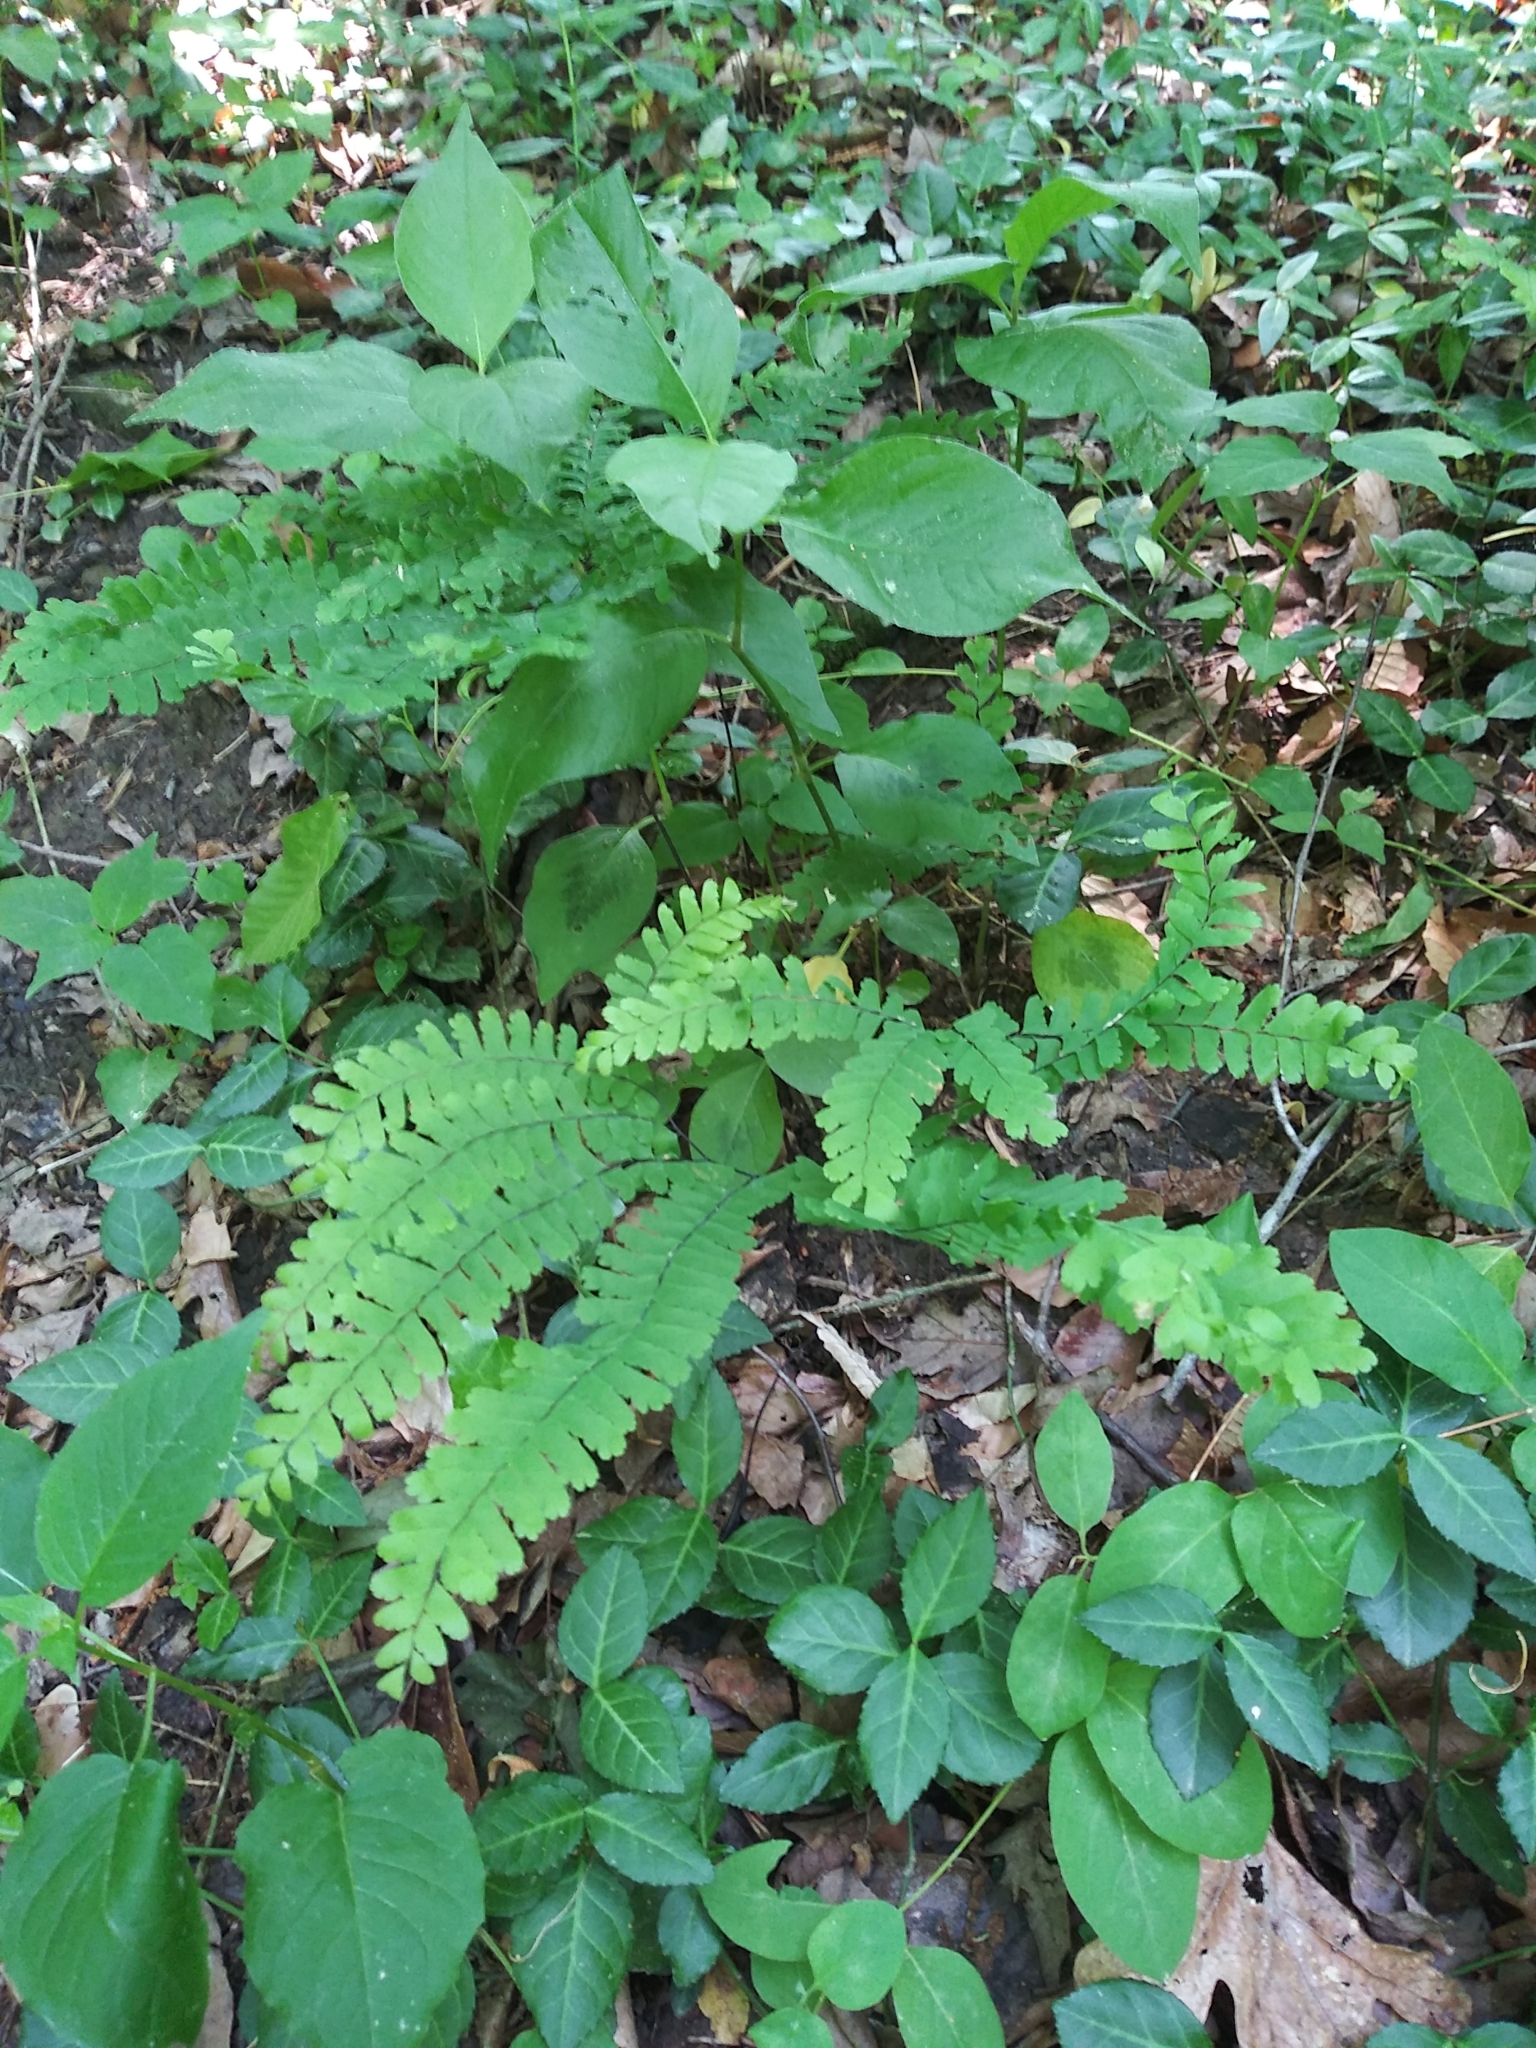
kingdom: Plantae
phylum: Tracheophyta
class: Polypodiopsida
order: Polypodiales
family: Pteridaceae
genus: Adiantum
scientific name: Adiantum pedatum
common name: Five-finger fern
